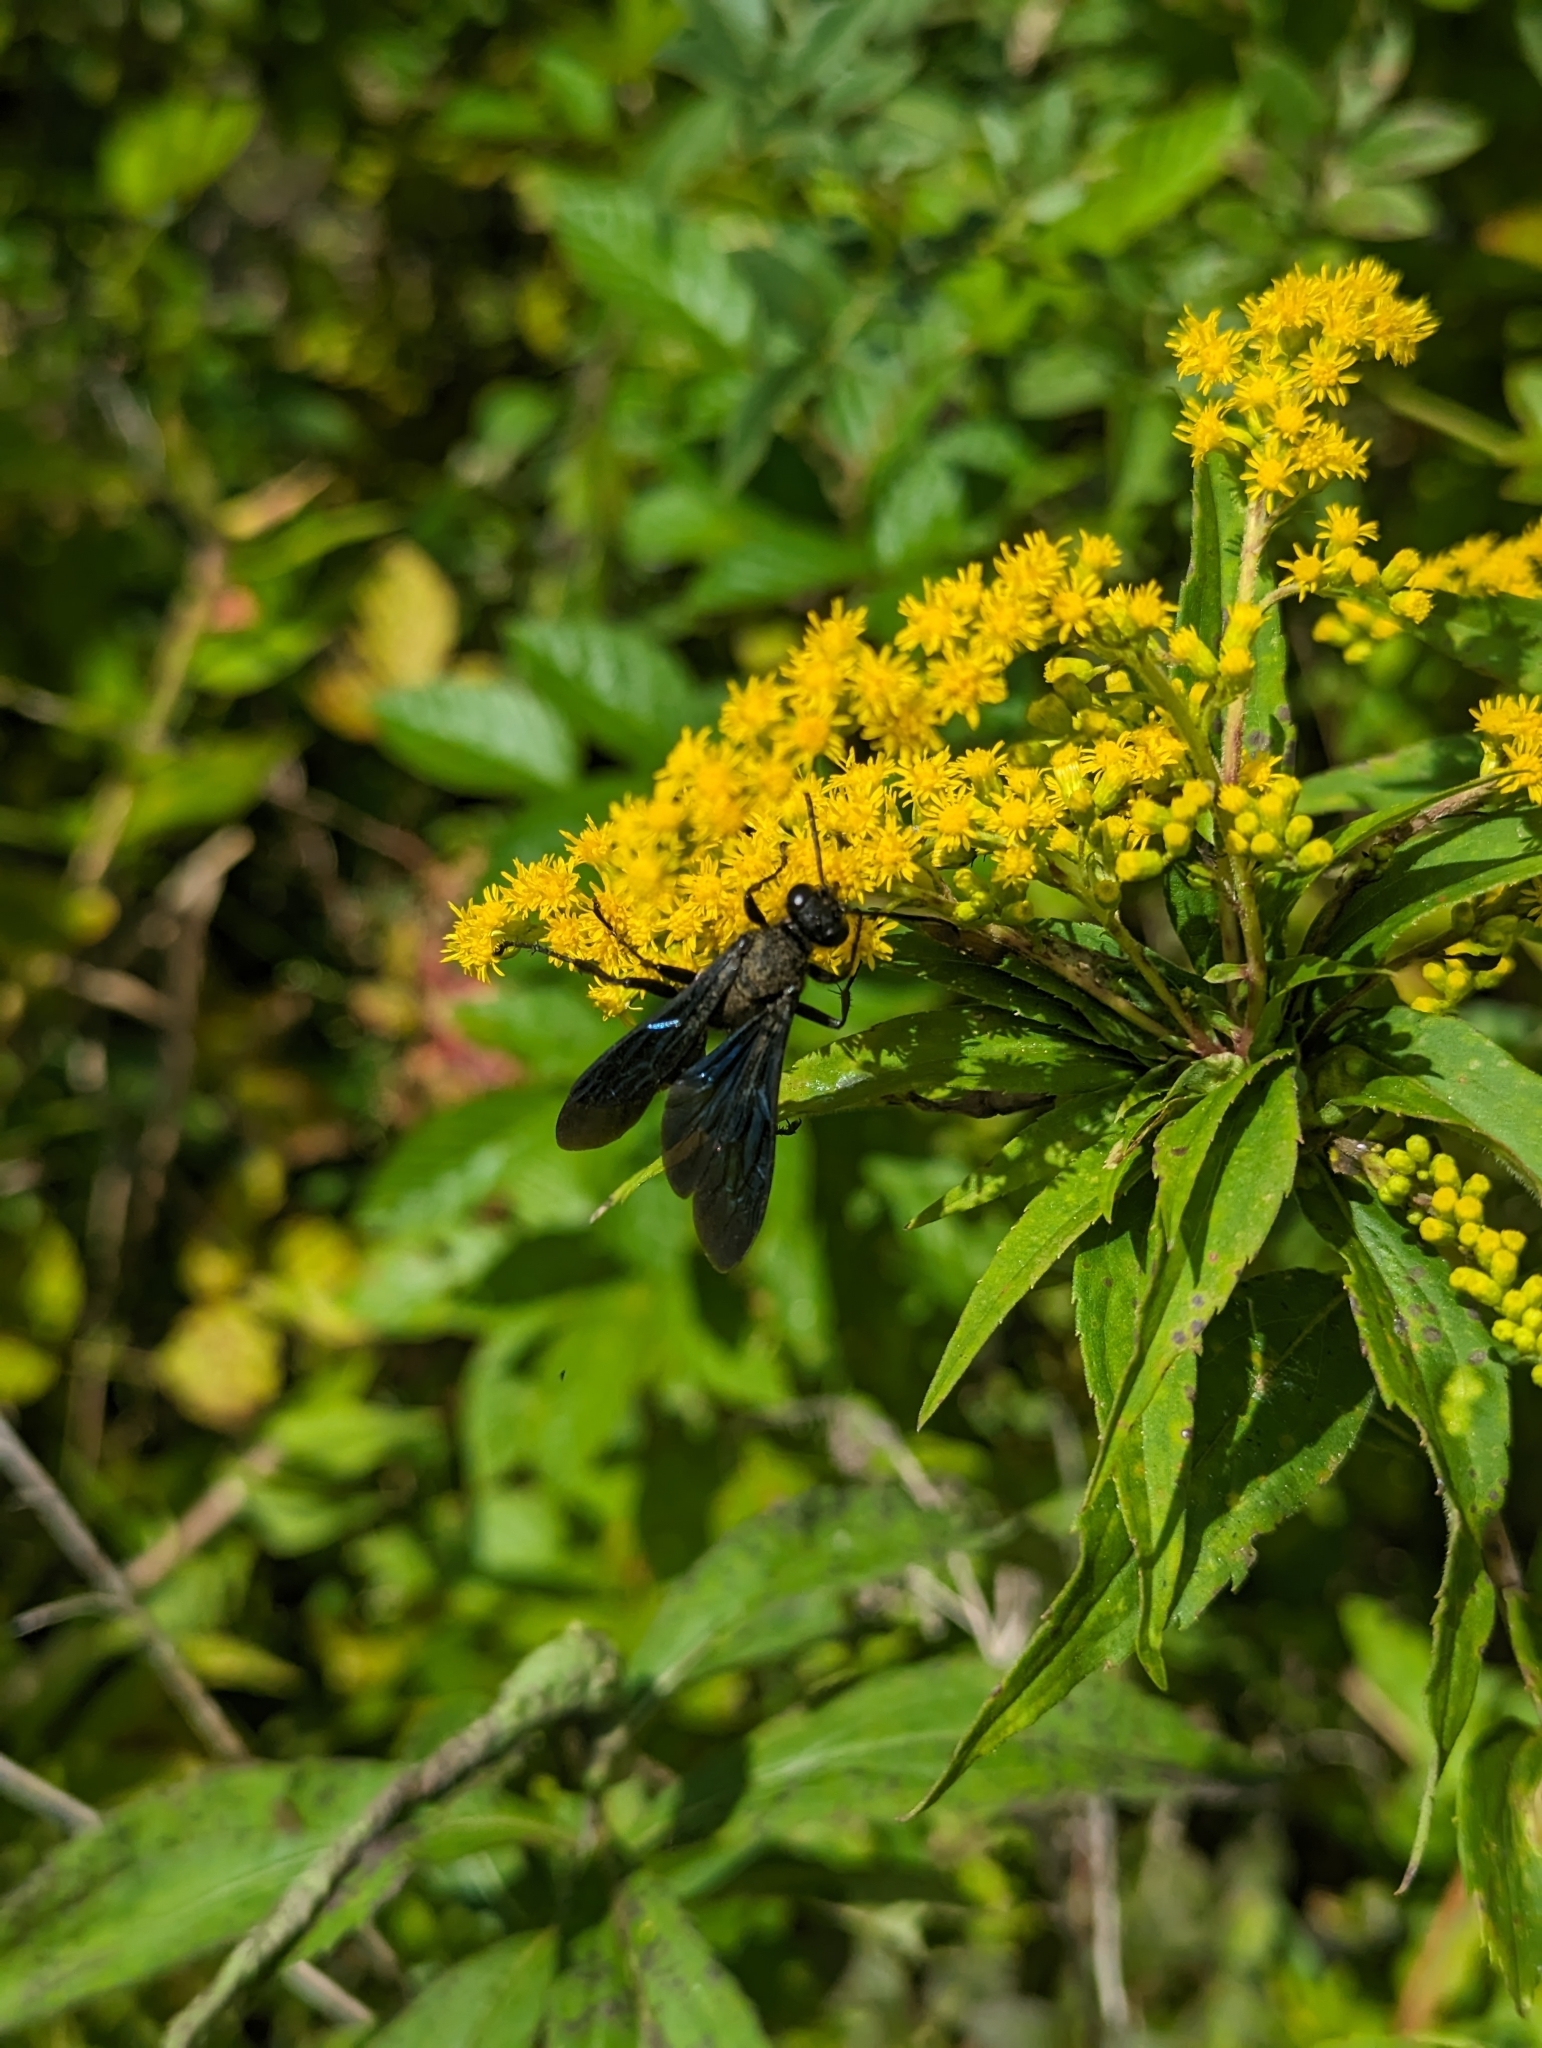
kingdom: Animalia
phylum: Arthropoda
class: Insecta
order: Hymenoptera
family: Sphecidae
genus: Sphex
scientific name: Sphex pensylvanicus
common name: Great black digger wasp
